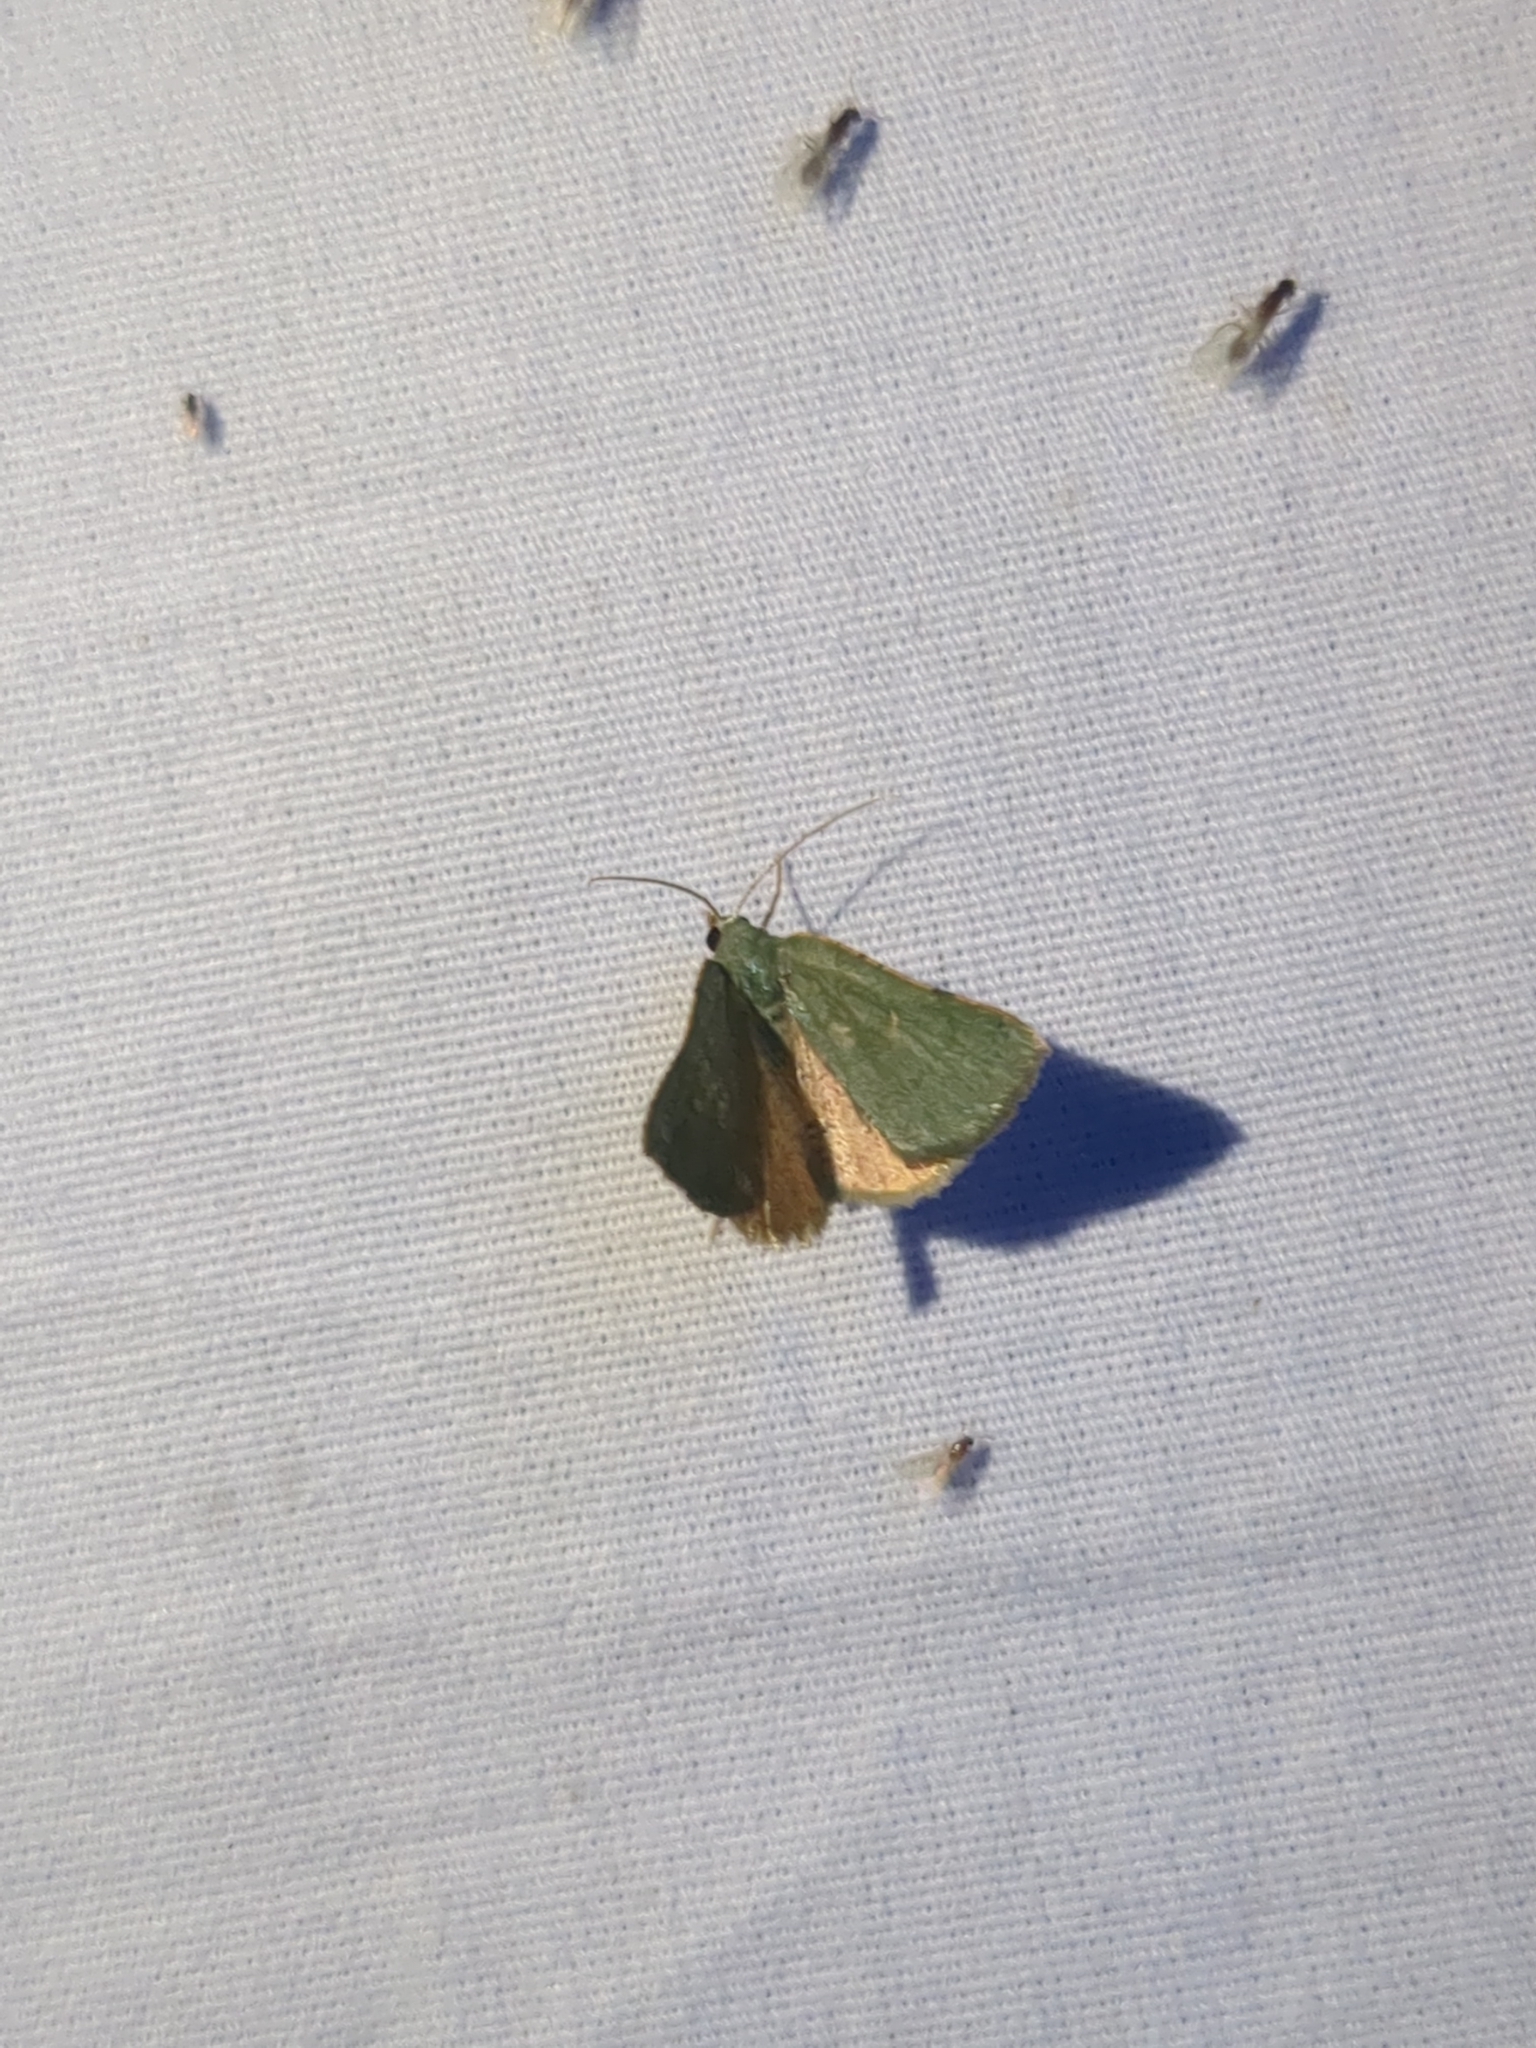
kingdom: Animalia
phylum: Arthropoda
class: Insecta
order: Lepidoptera
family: Geometridae
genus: Chloraspilates
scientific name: Chloraspilates bicoloraria
